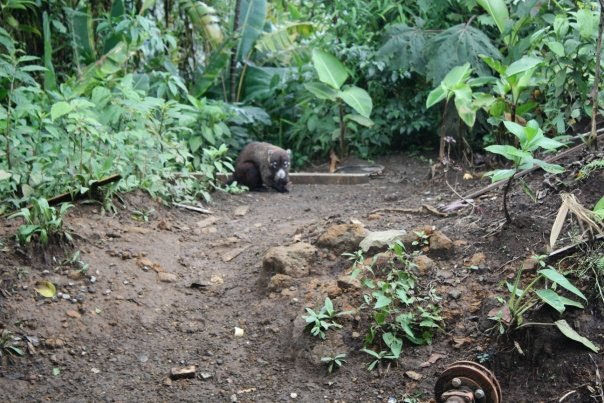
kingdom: Animalia
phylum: Chordata
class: Mammalia
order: Carnivora
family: Procyonidae
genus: Nasua
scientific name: Nasua narica
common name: White-nosed coati
